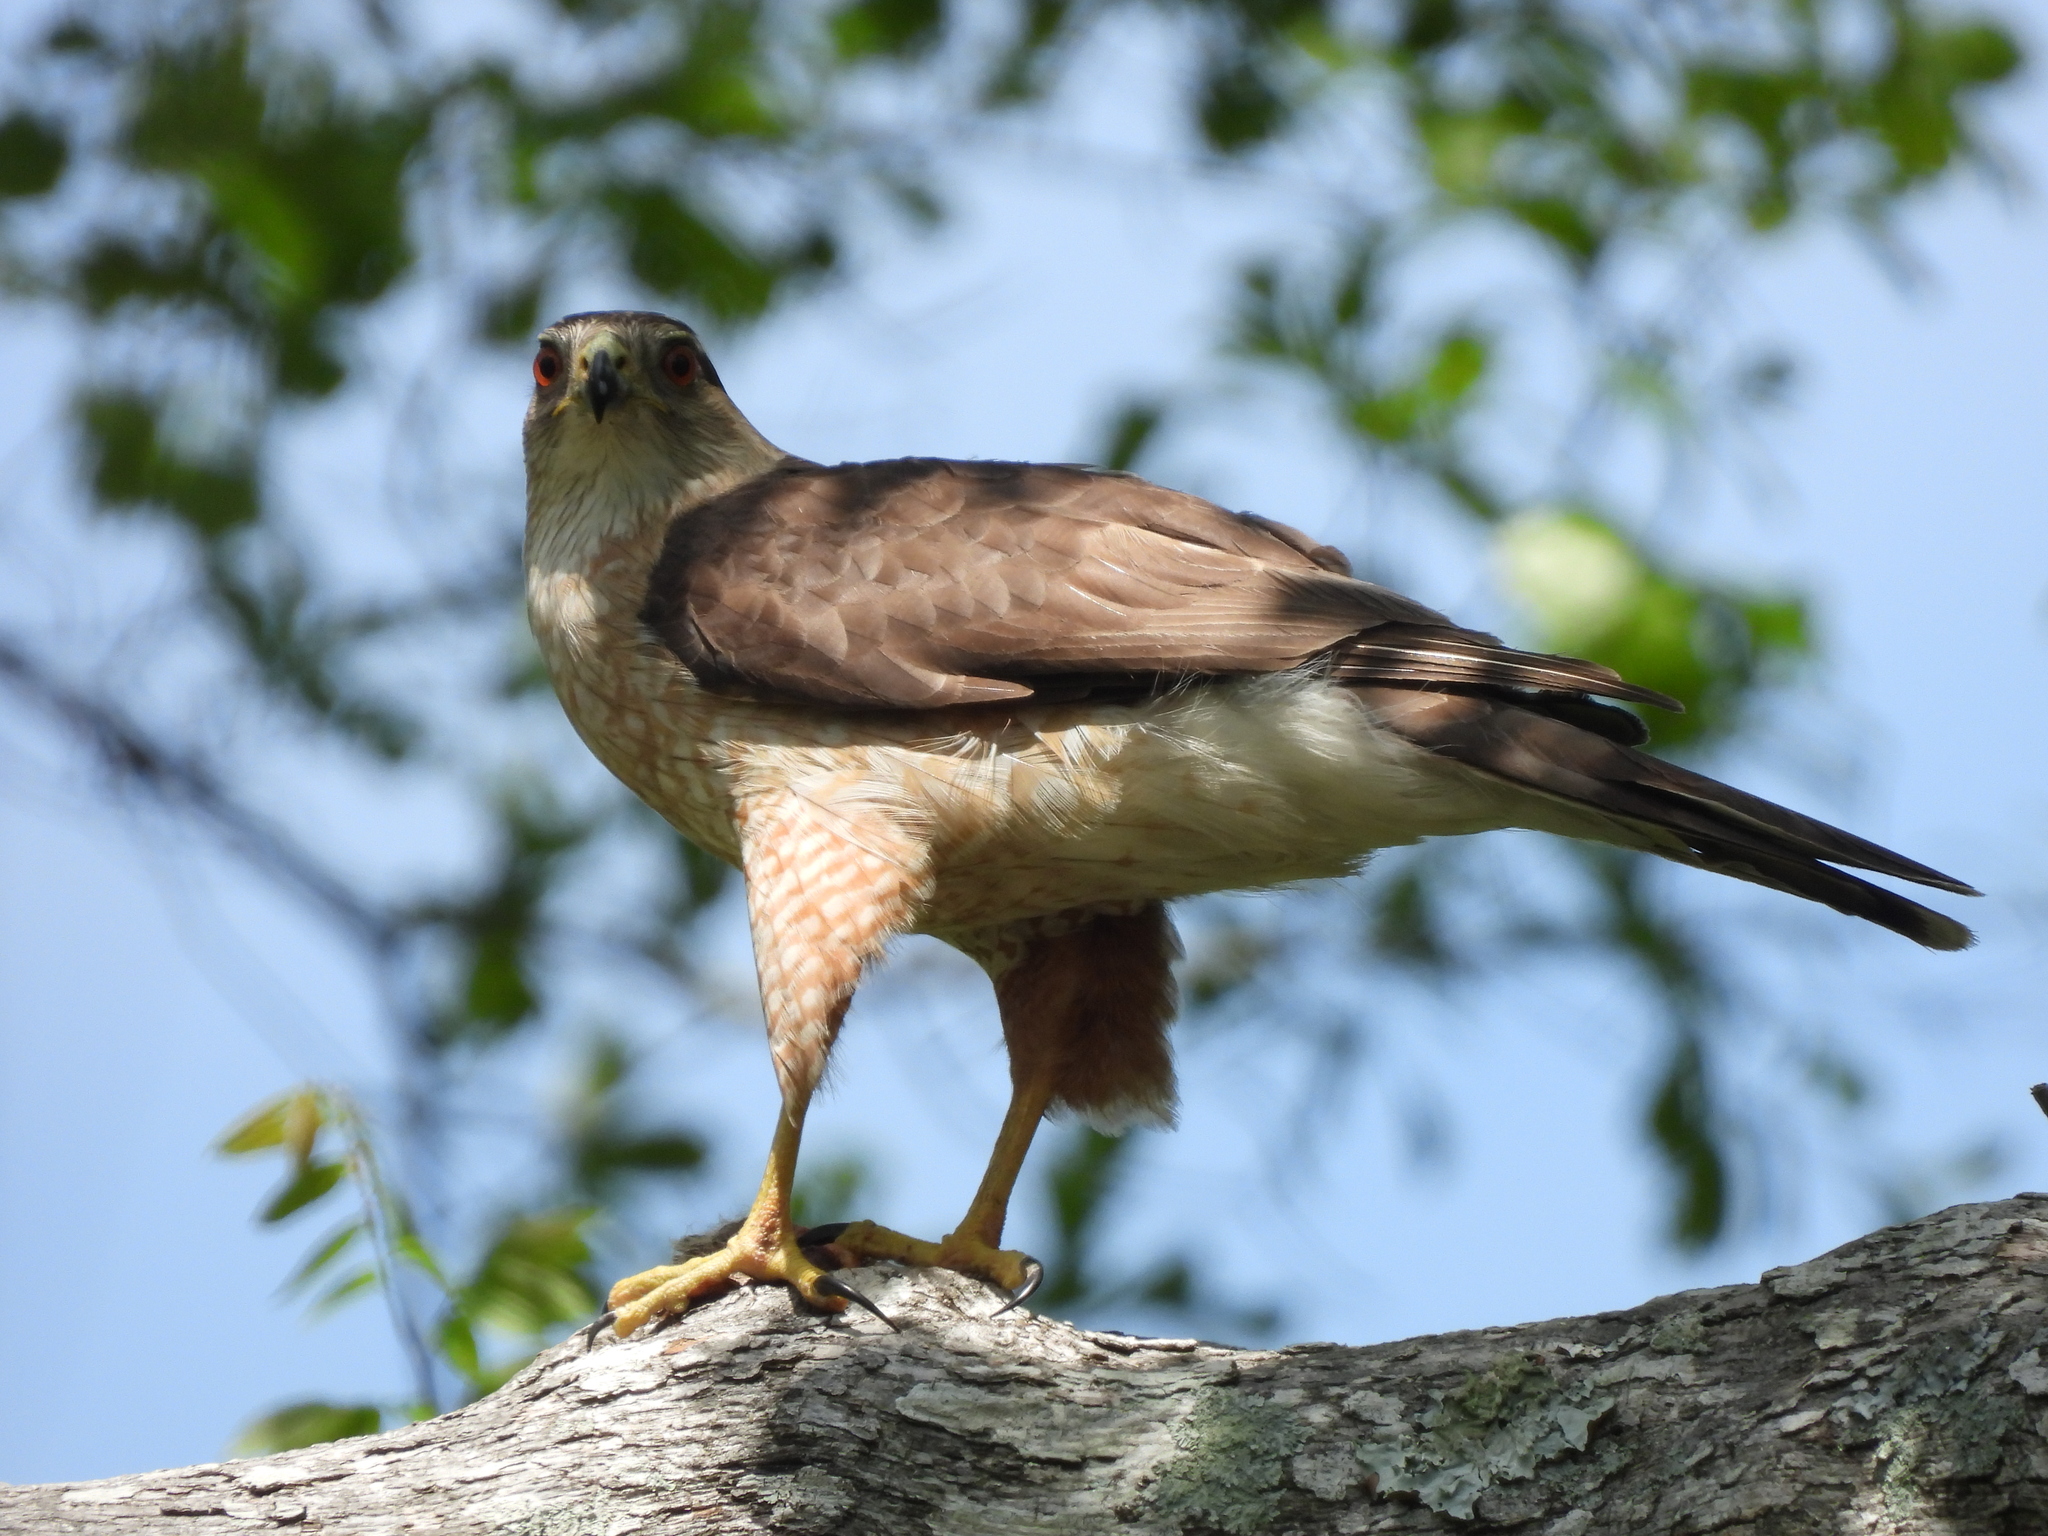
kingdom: Animalia
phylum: Chordata
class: Aves
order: Accipitriformes
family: Accipitridae
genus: Accipiter
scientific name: Accipiter cooperii
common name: Cooper's hawk
